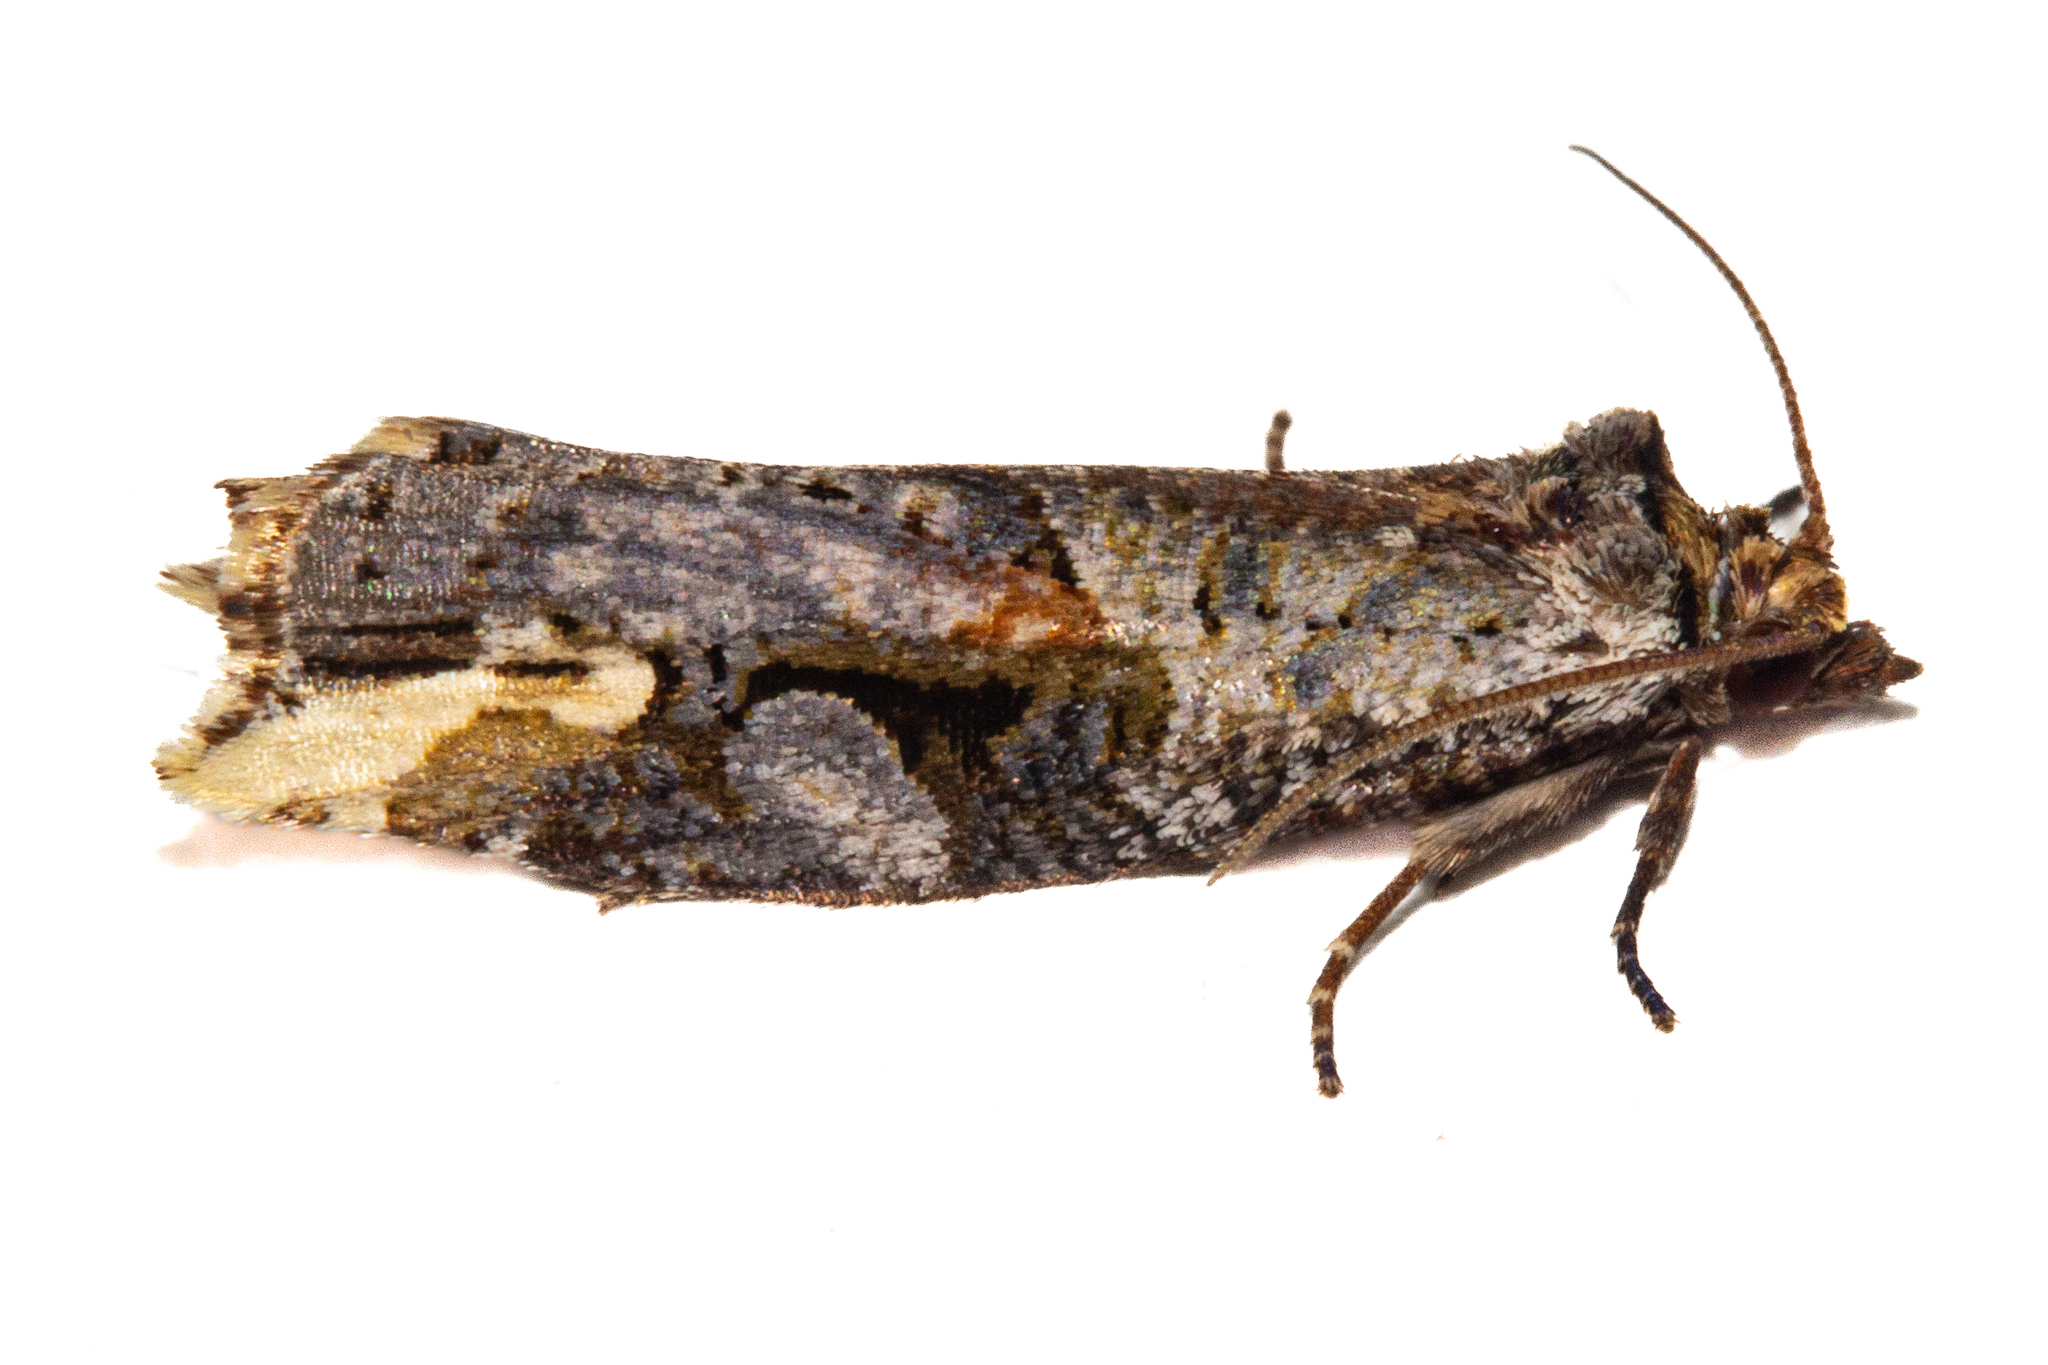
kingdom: Animalia
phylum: Arthropoda
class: Insecta
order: Lepidoptera
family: Tortricidae
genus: Epalxiphora
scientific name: Epalxiphora axenana
